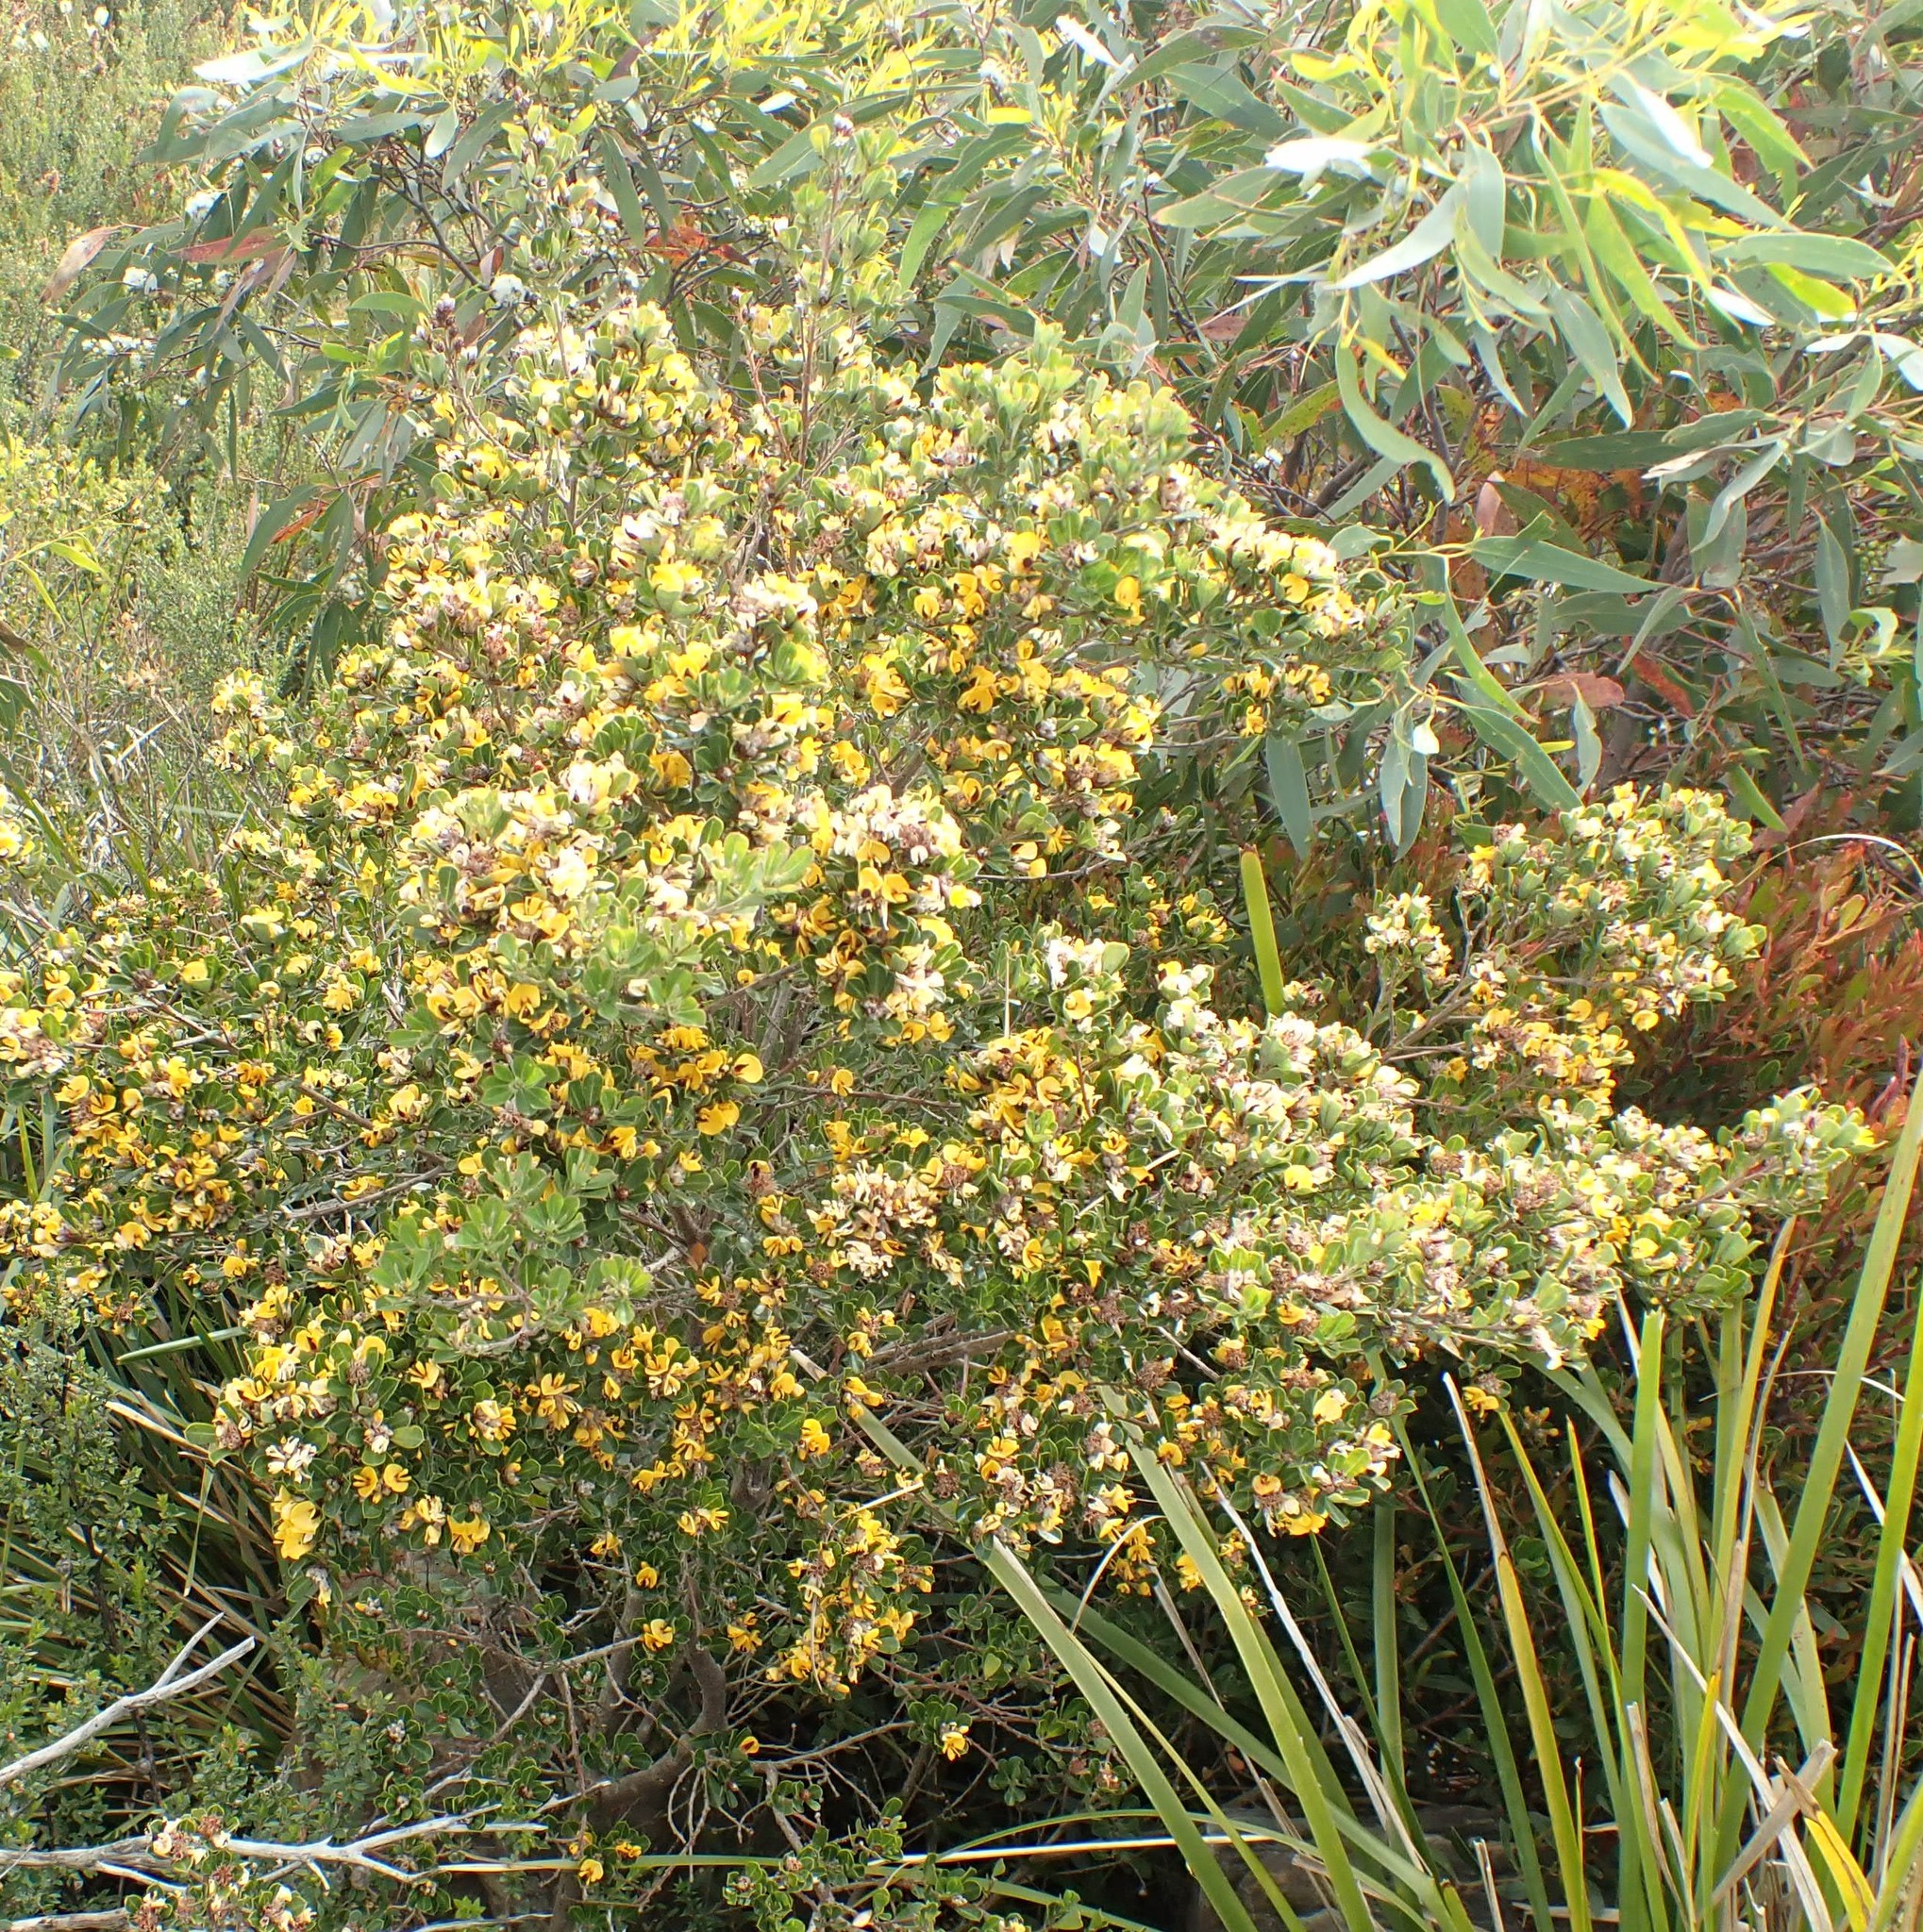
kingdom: Plantae
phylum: Tracheophyta
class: Magnoliopsida
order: Fabales
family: Fabaceae
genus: Pultenaea
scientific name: Pultenaea daphnoides
